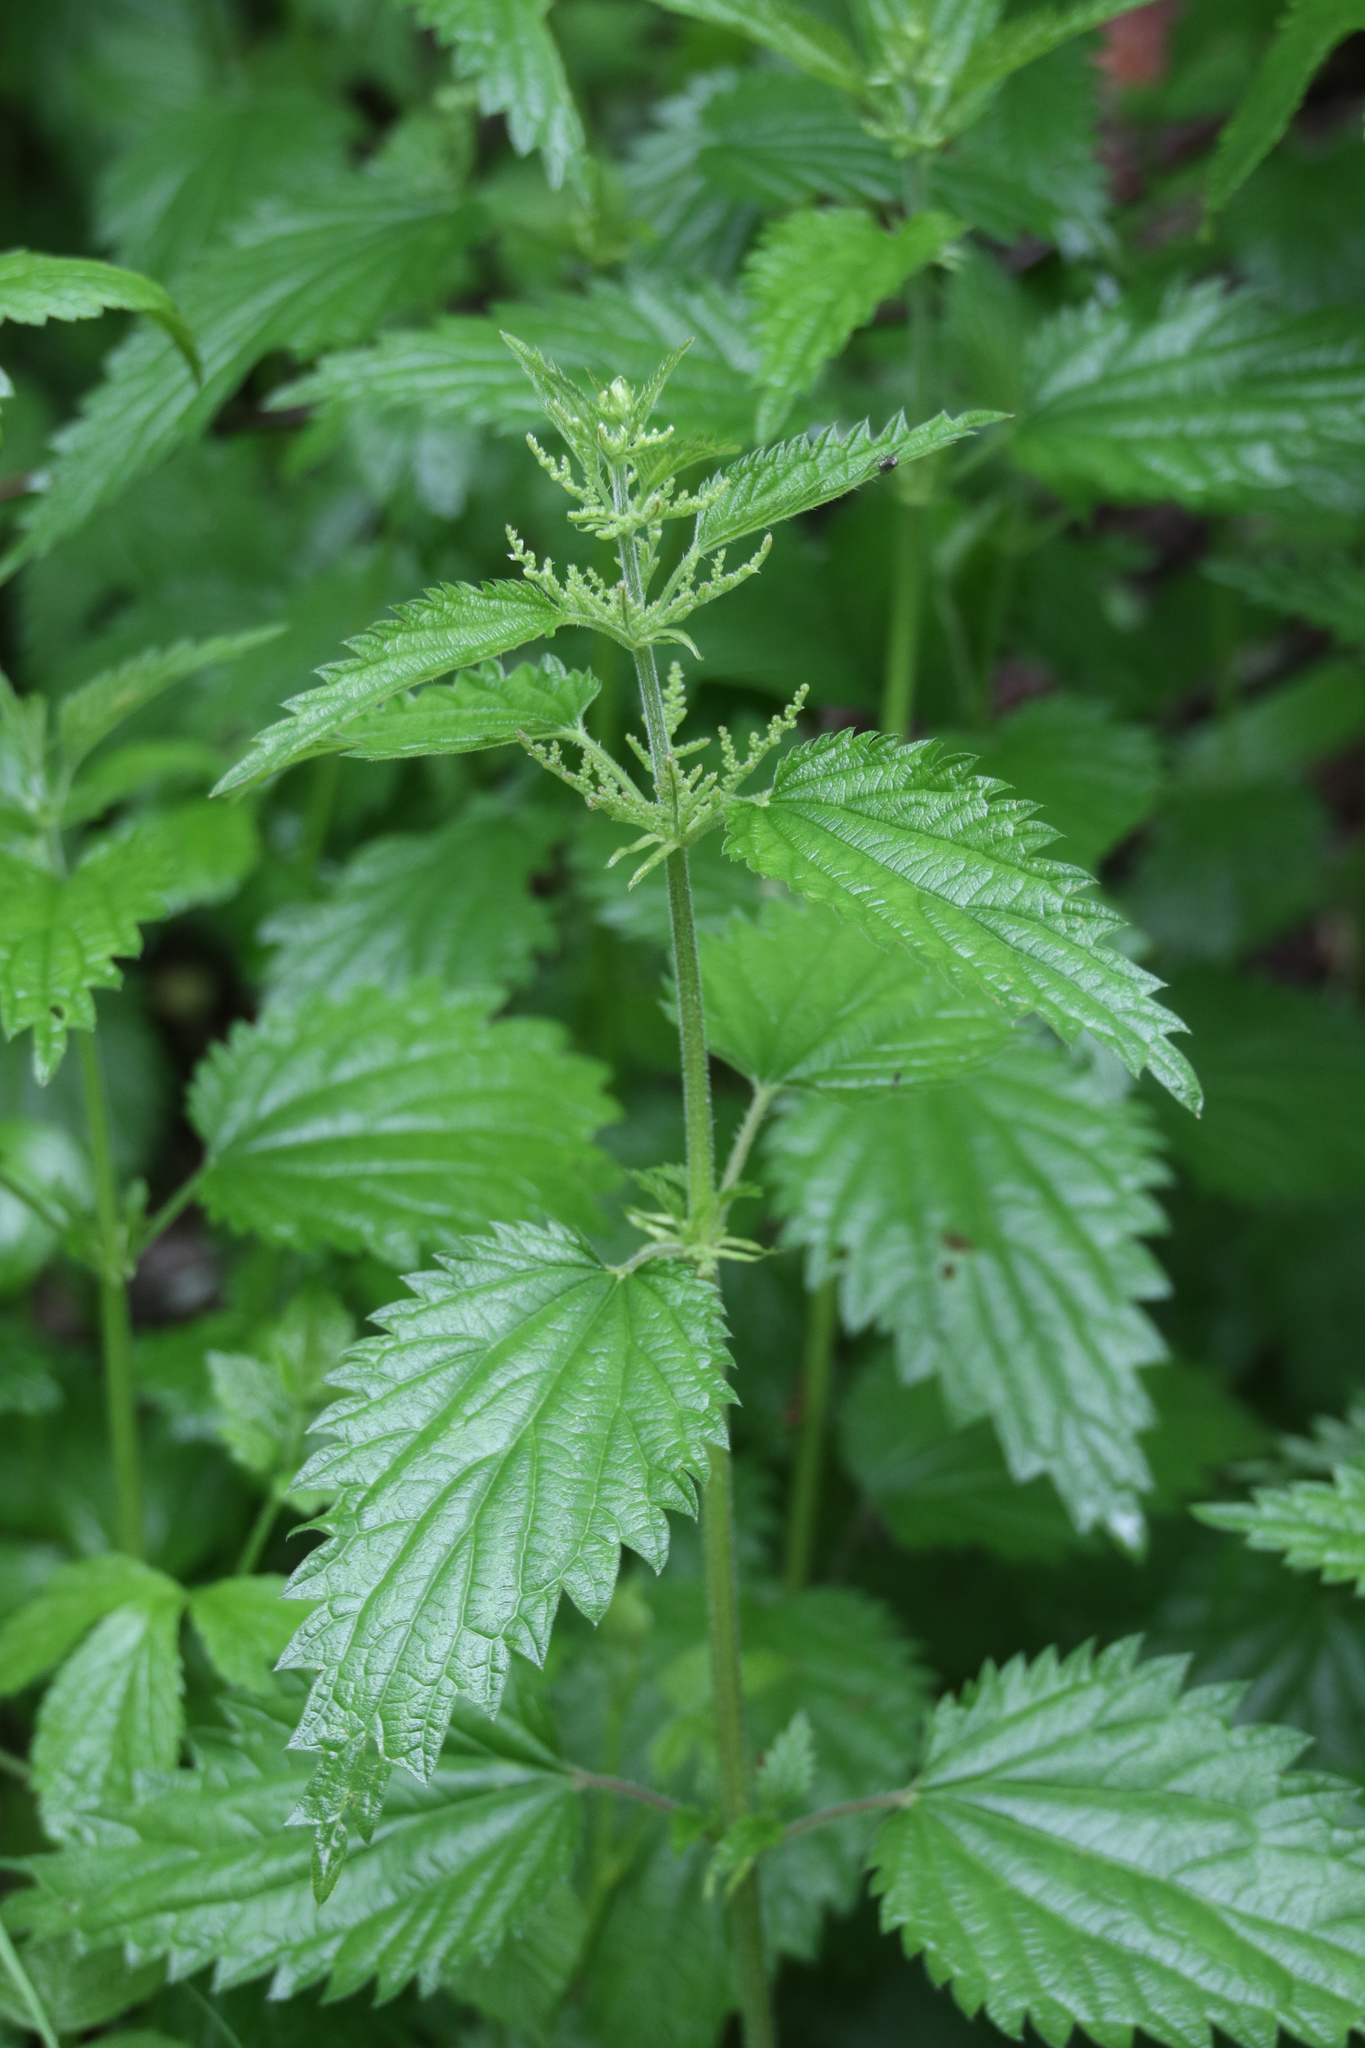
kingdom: Plantae
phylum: Tracheophyta
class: Magnoliopsida
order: Rosales
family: Urticaceae
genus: Urtica
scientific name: Urtica dioica
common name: Common nettle
